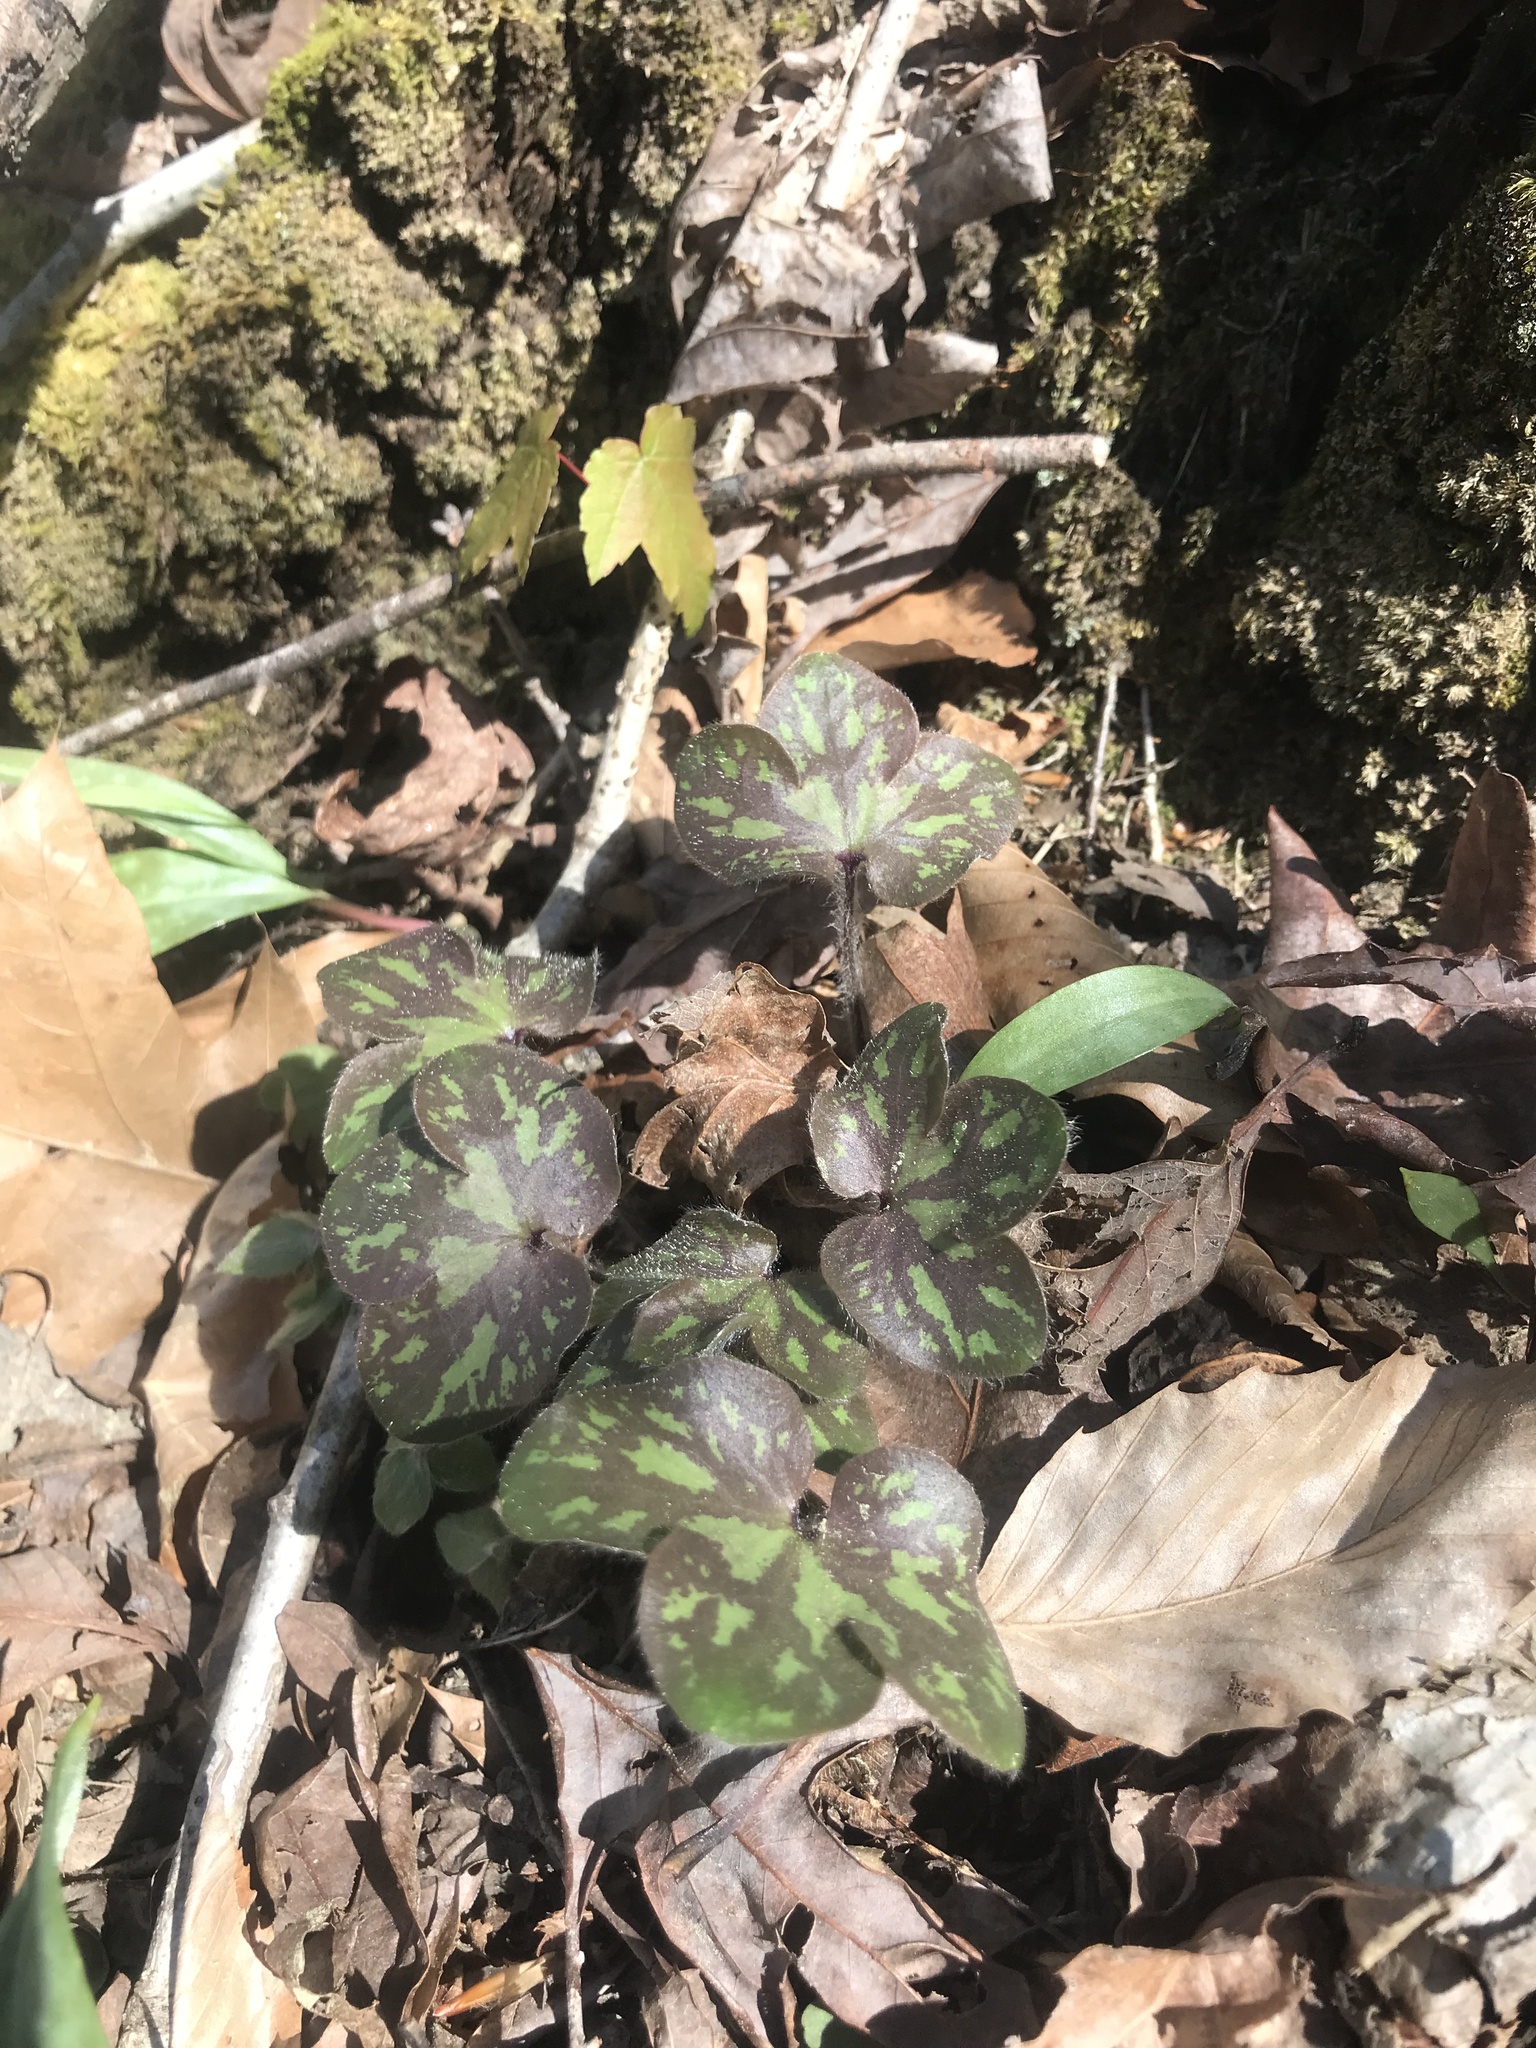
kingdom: Plantae
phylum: Tracheophyta
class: Magnoliopsida
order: Ranunculales
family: Ranunculaceae
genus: Hepatica
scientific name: Hepatica americana
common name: American hepatica
